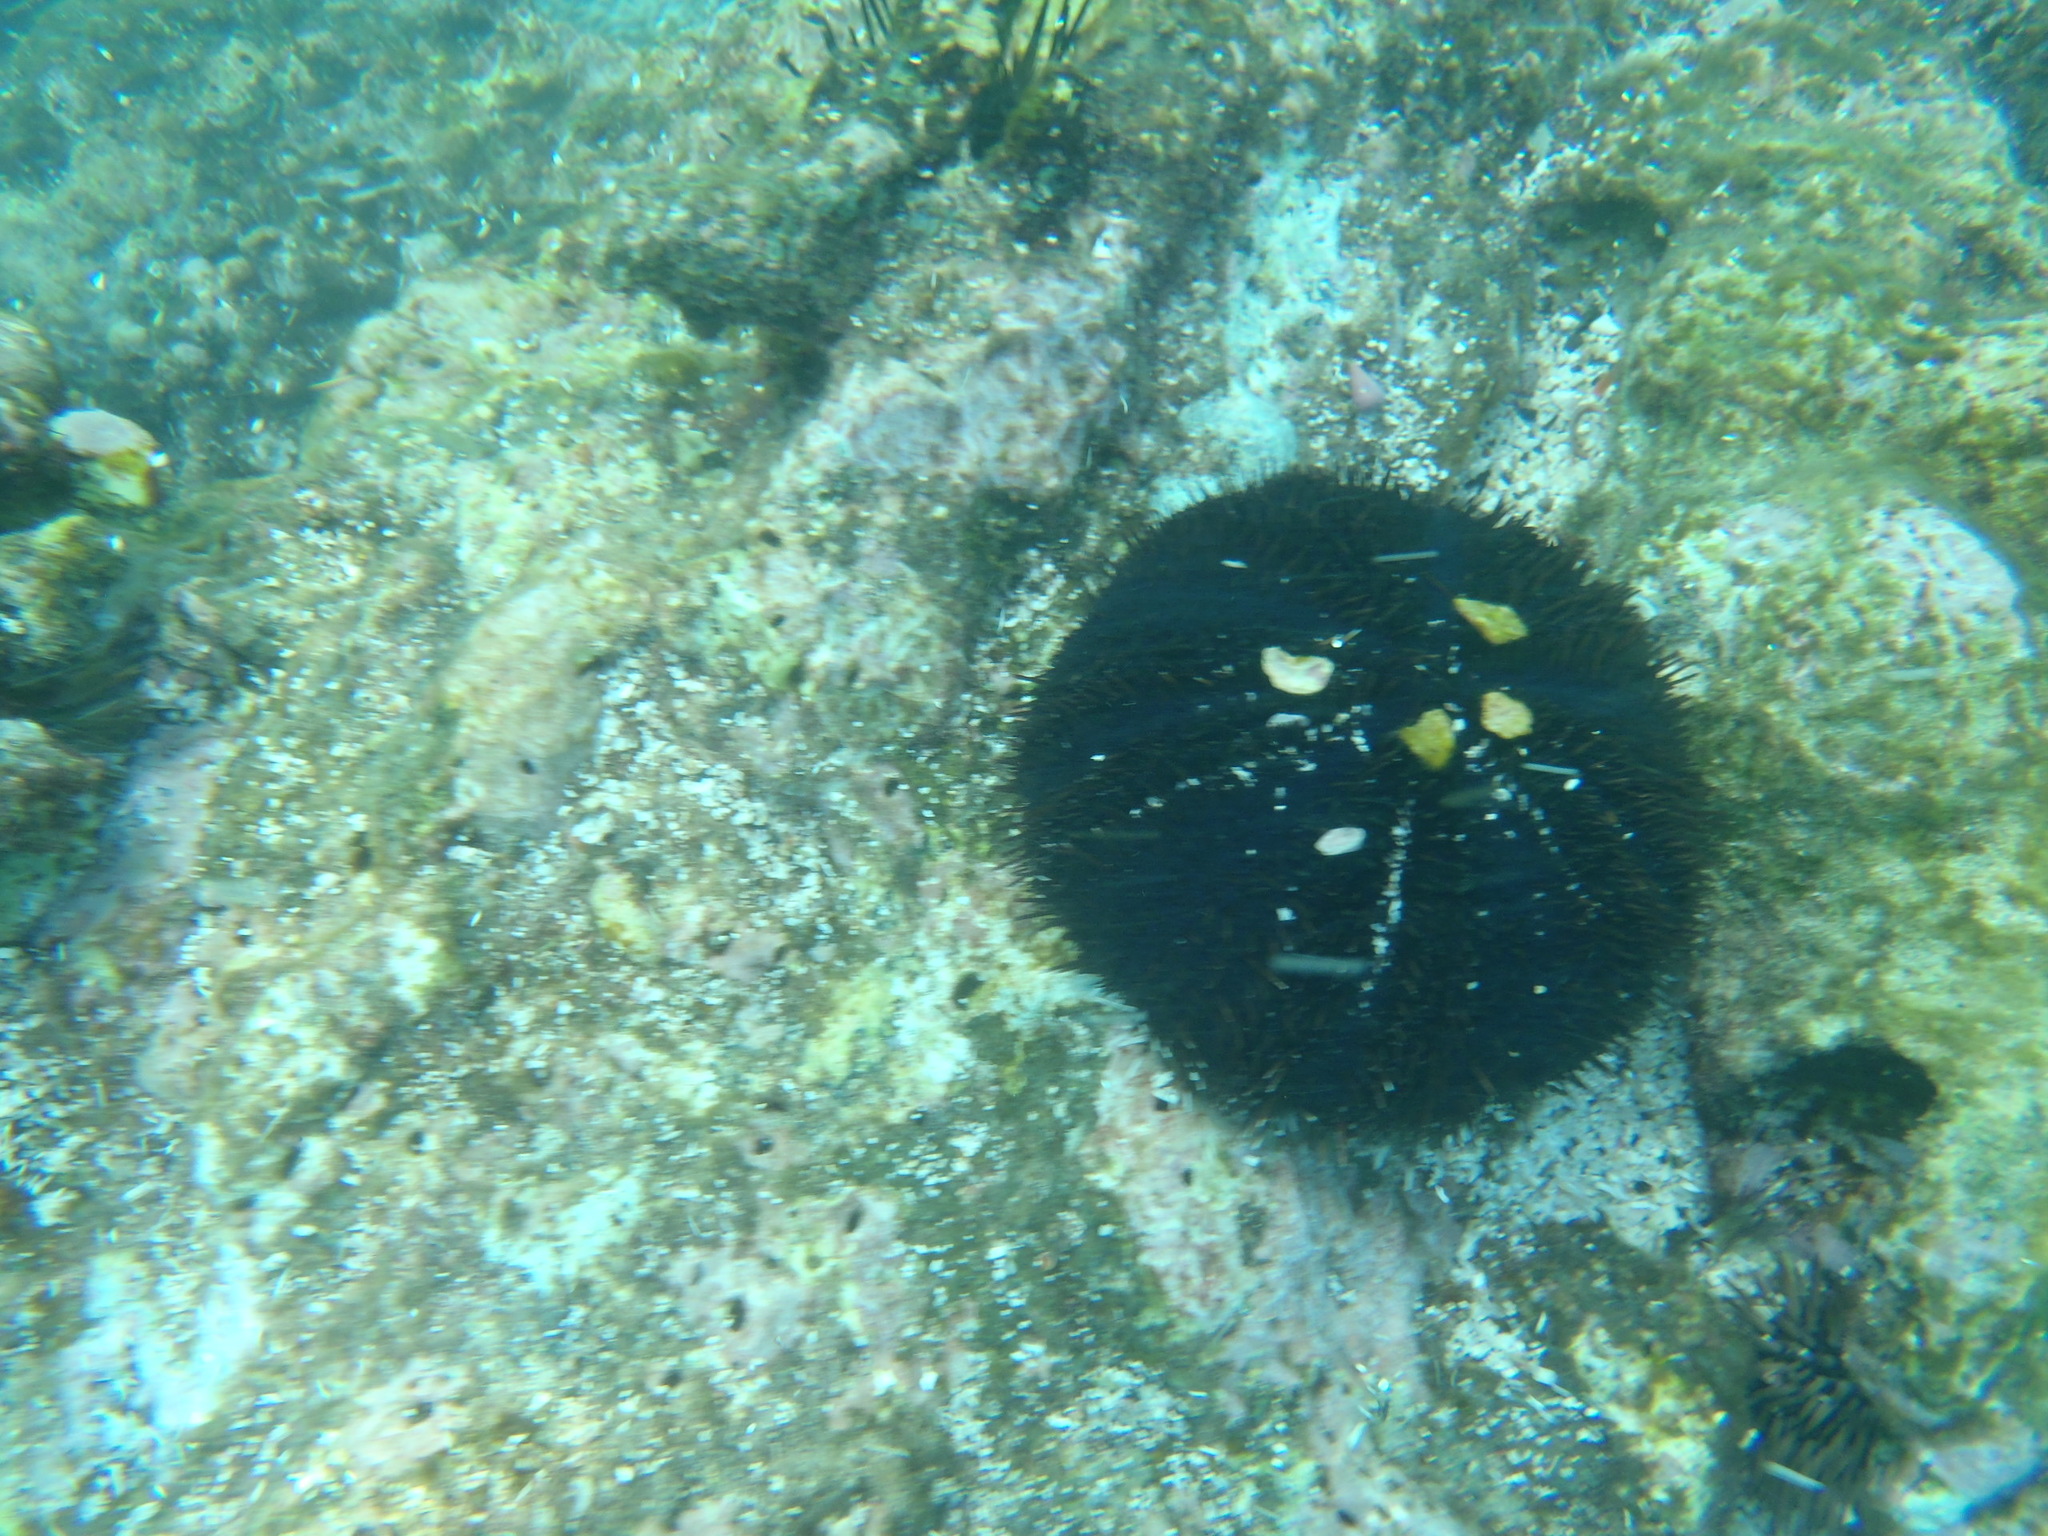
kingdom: Animalia
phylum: Echinodermata
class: Echinoidea
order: Camarodonta
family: Toxopneustidae
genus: Tripneustes
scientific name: Tripneustes gratilla
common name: Bischofsmützenseeigel
